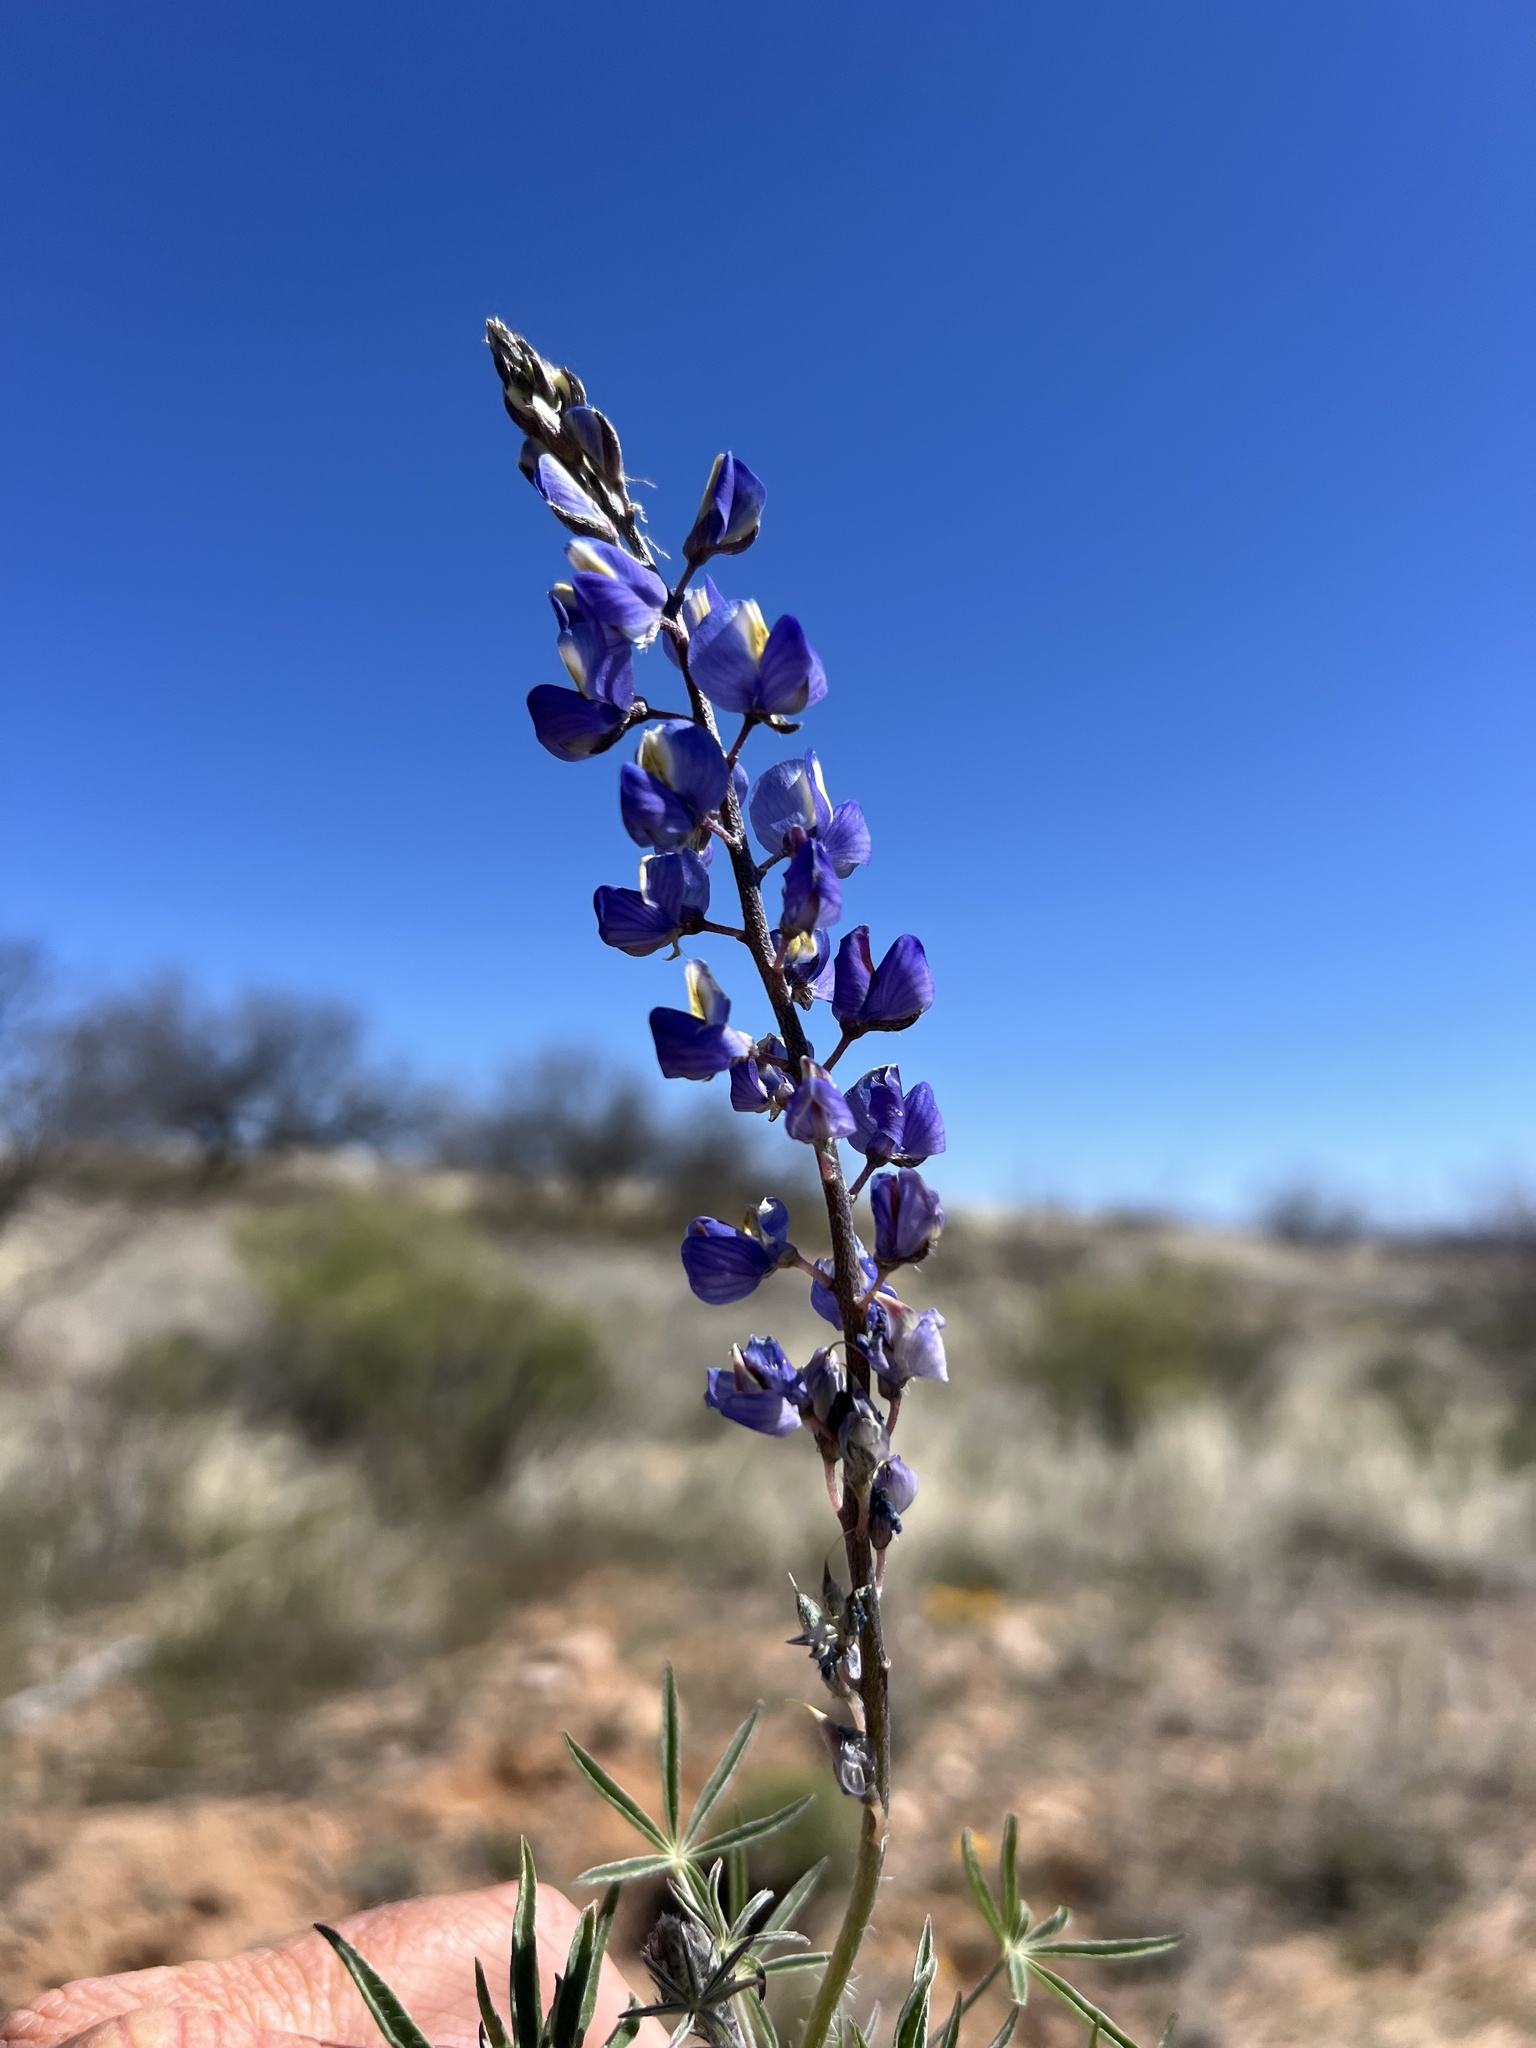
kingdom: Plantae
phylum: Tracheophyta
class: Magnoliopsida
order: Fabales
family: Fabaceae
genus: Lupinus
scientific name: Lupinus sparsiflorus
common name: Coulter's lupine
